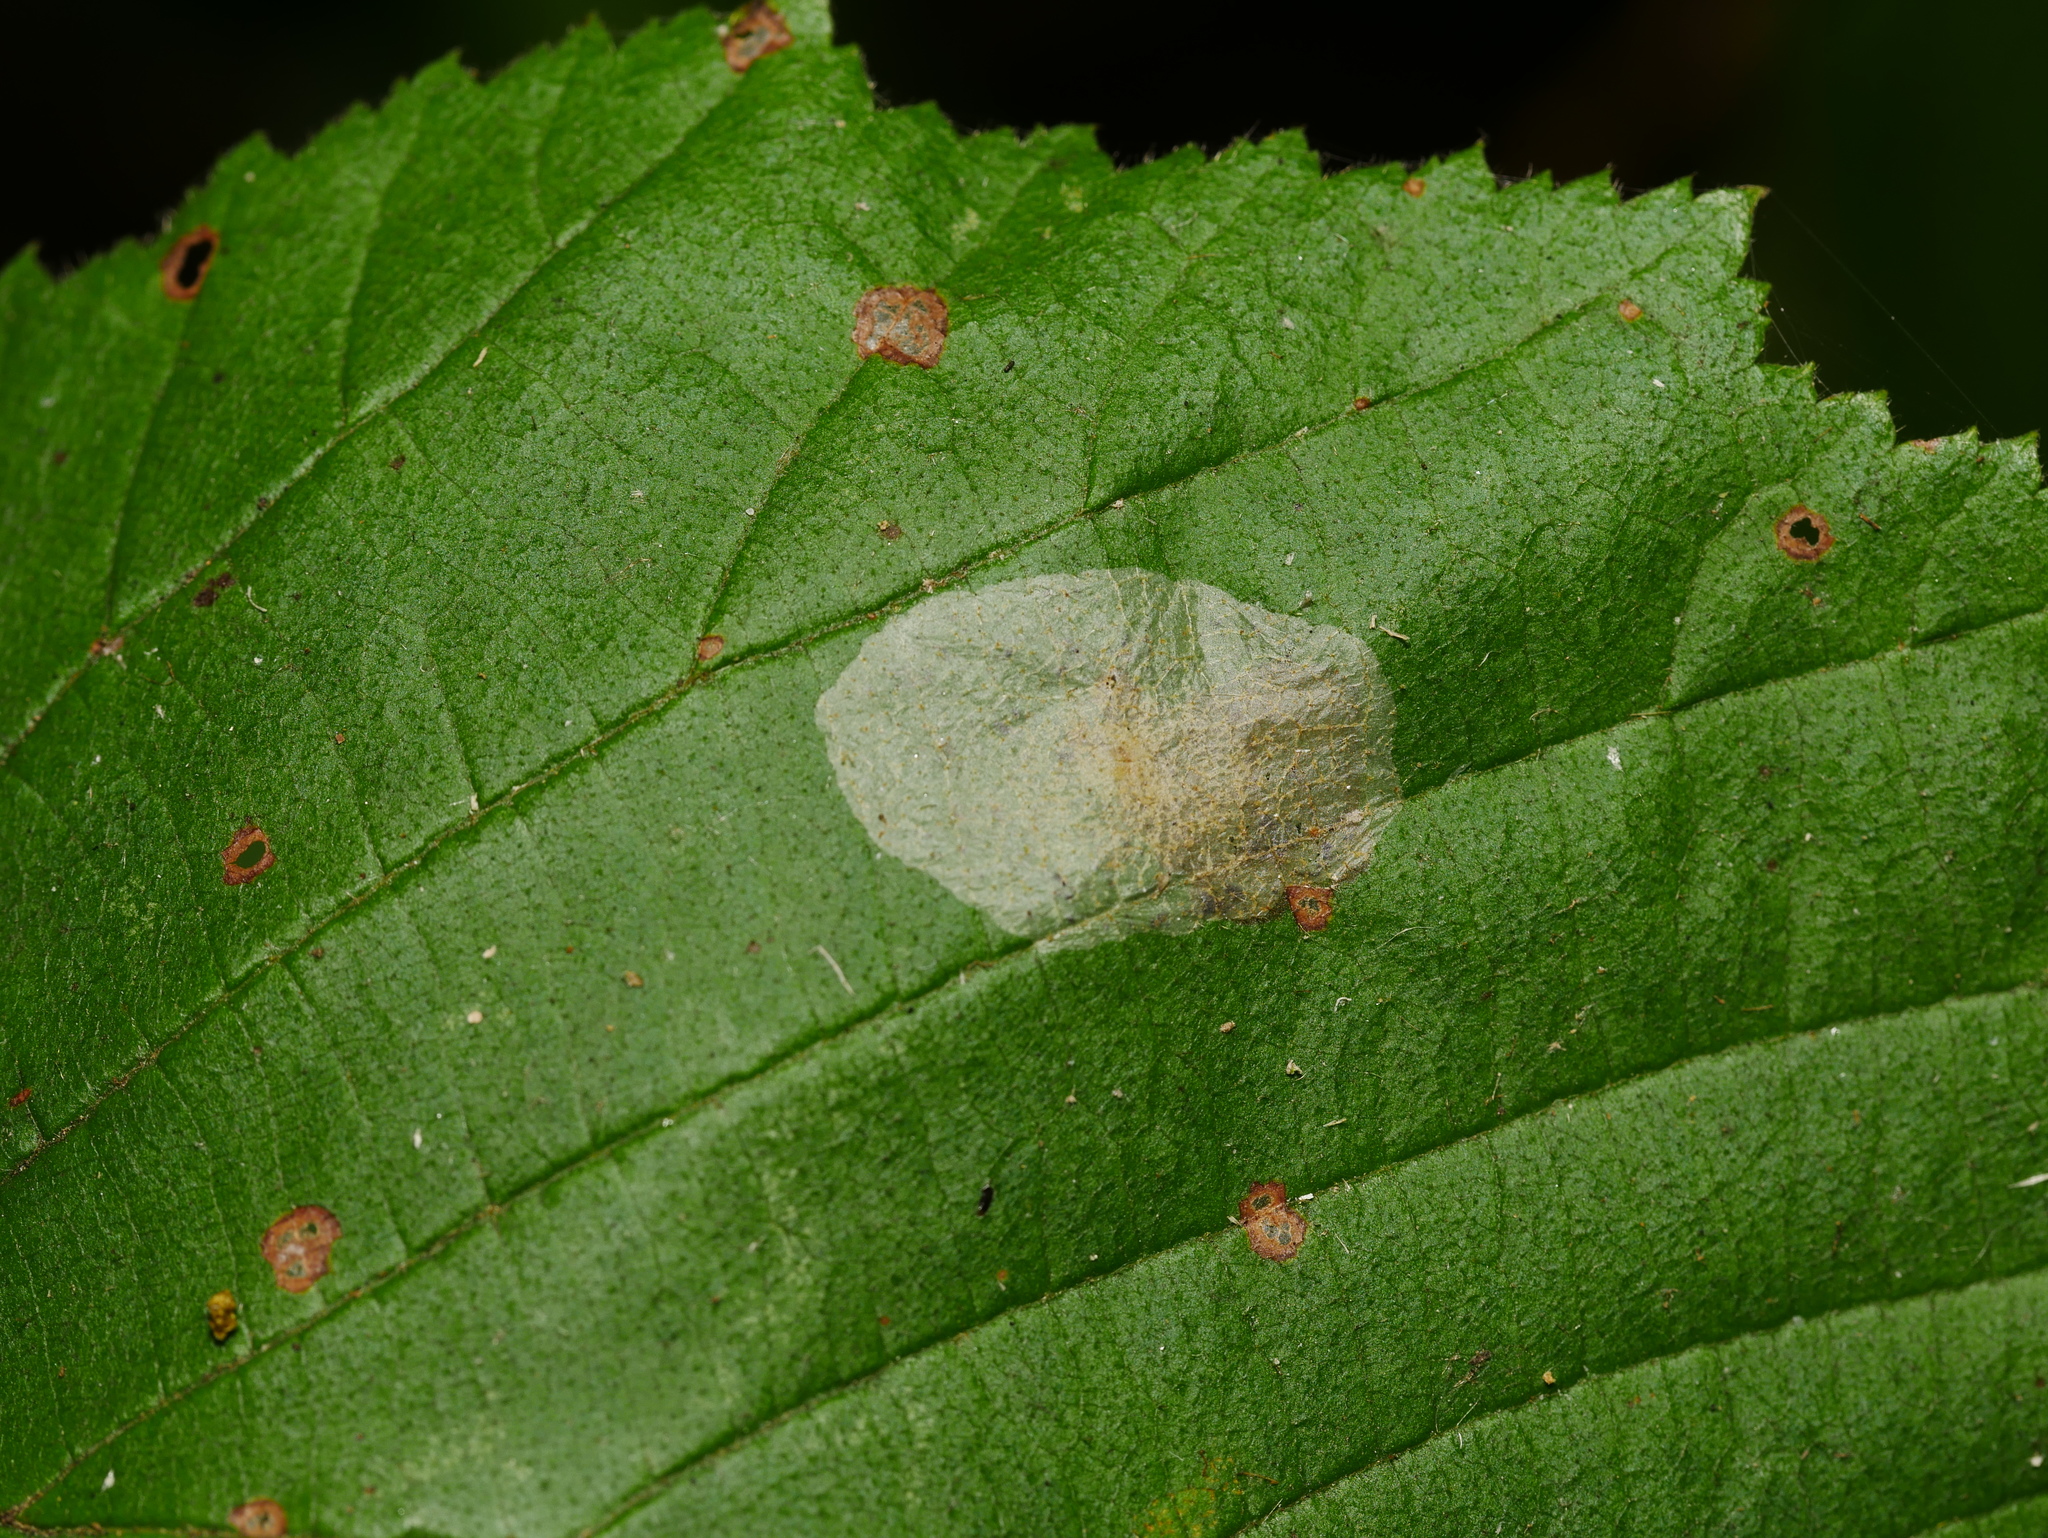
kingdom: Animalia
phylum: Arthropoda
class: Insecta
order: Lepidoptera
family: Gracillariidae
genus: Phyllonorycter
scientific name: Phyllonorycter coryli
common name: Nut-leaf blister moth
